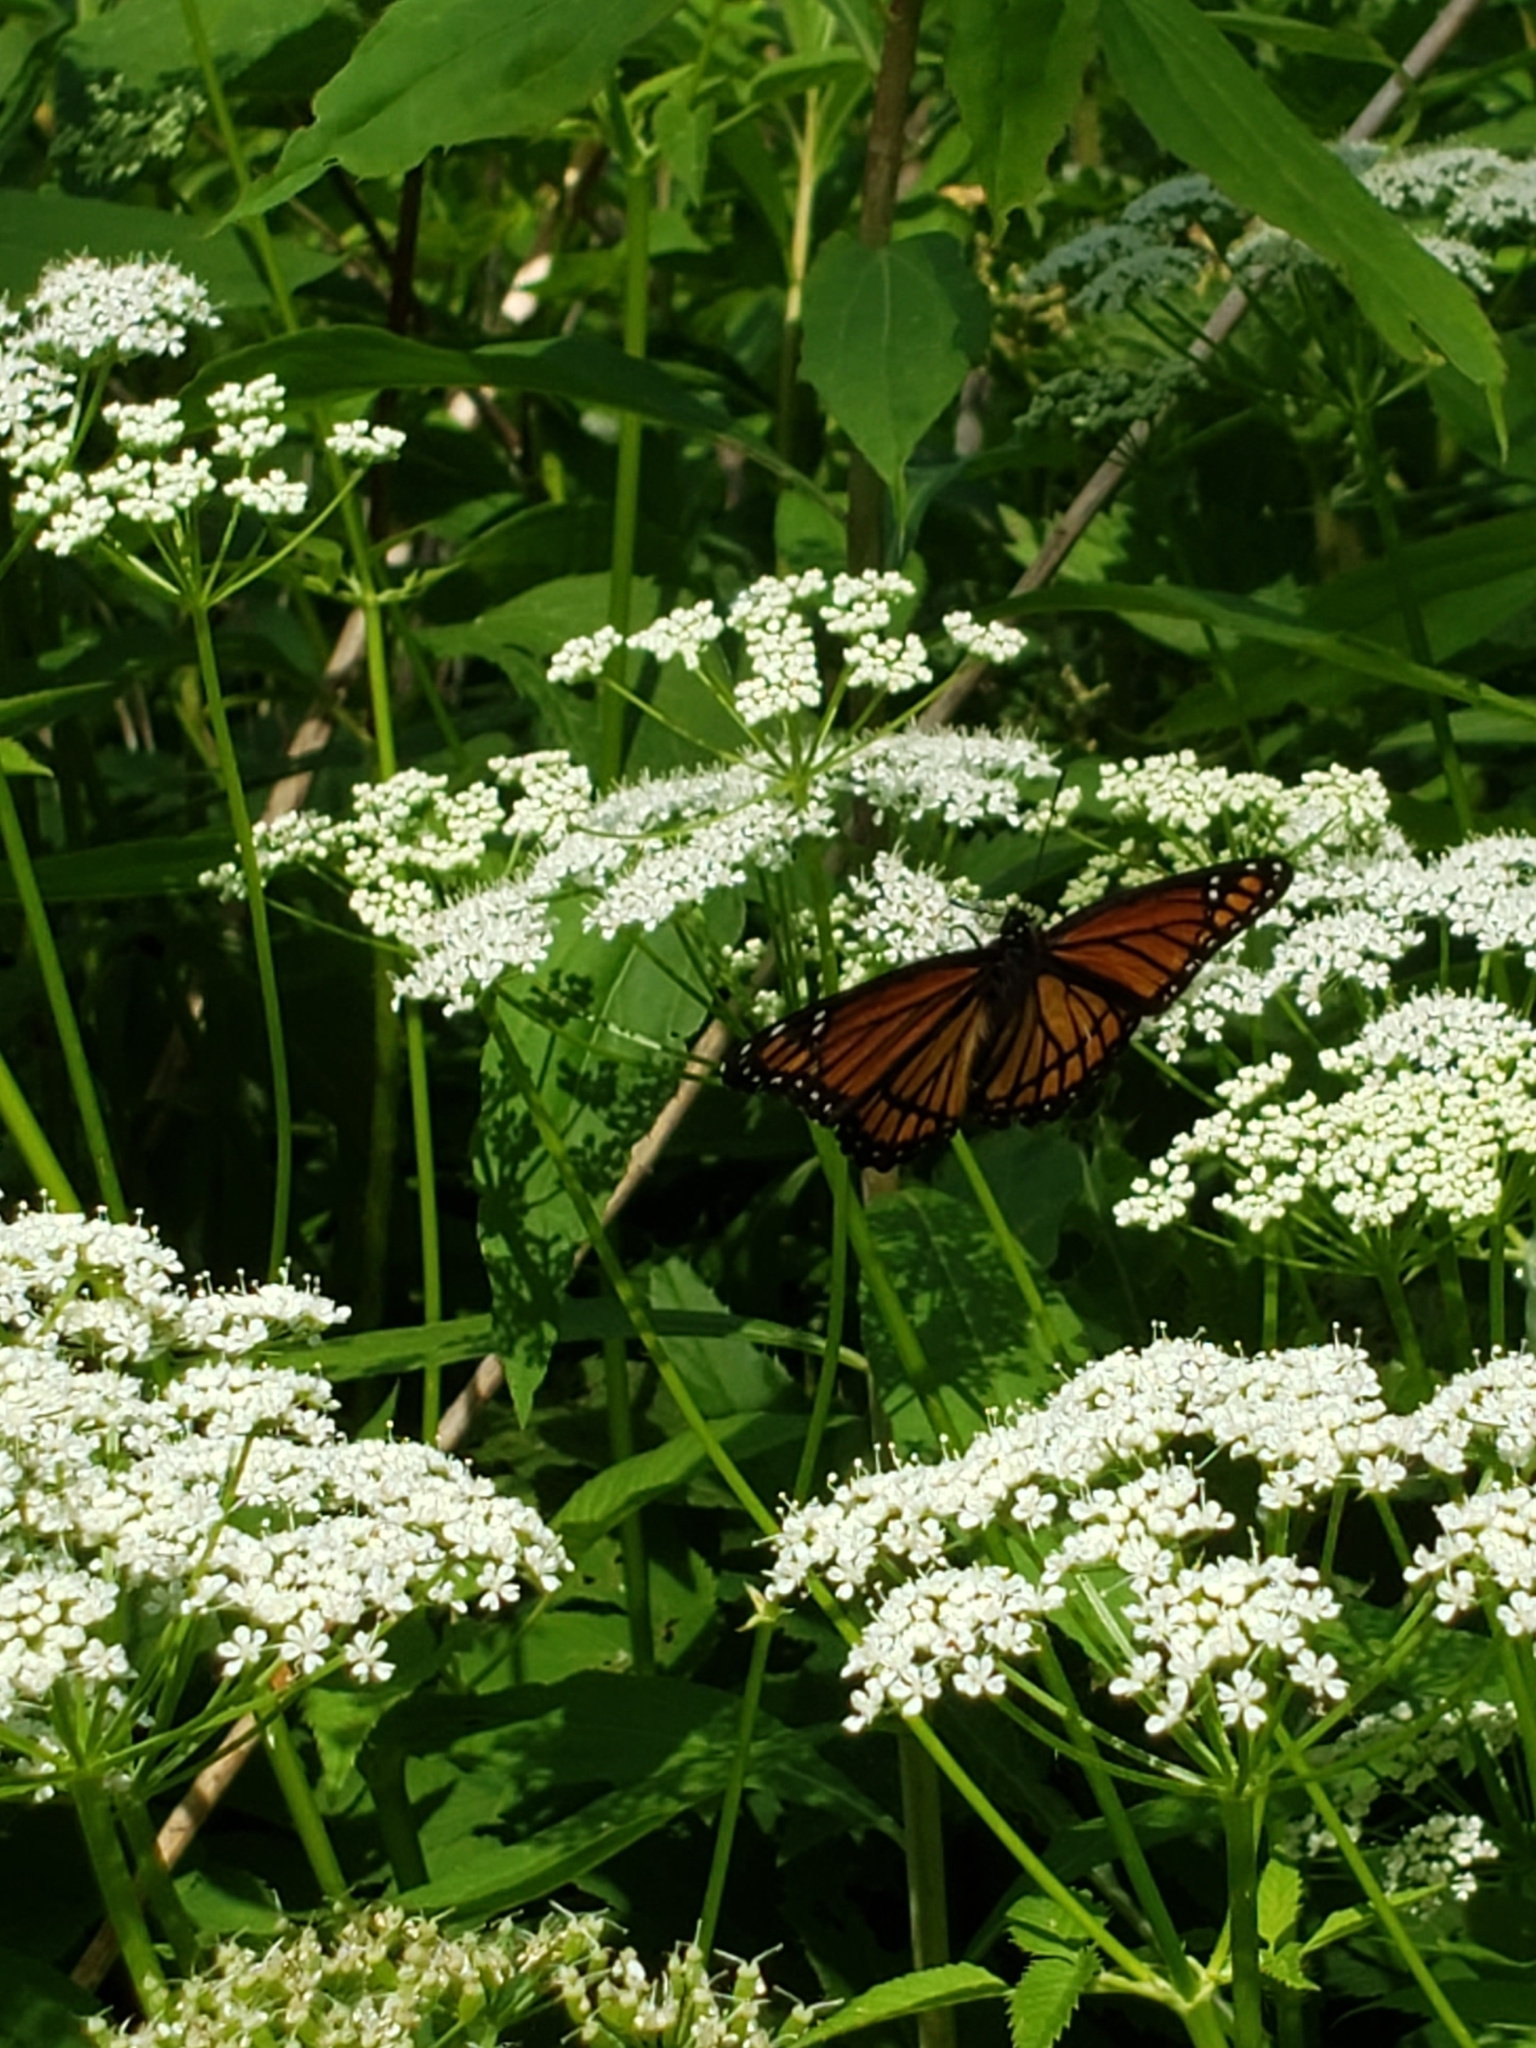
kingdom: Animalia
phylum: Arthropoda
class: Insecta
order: Lepidoptera
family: Nymphalidae
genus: Limenitis
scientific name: Limenitis archippus
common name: Viceroy
